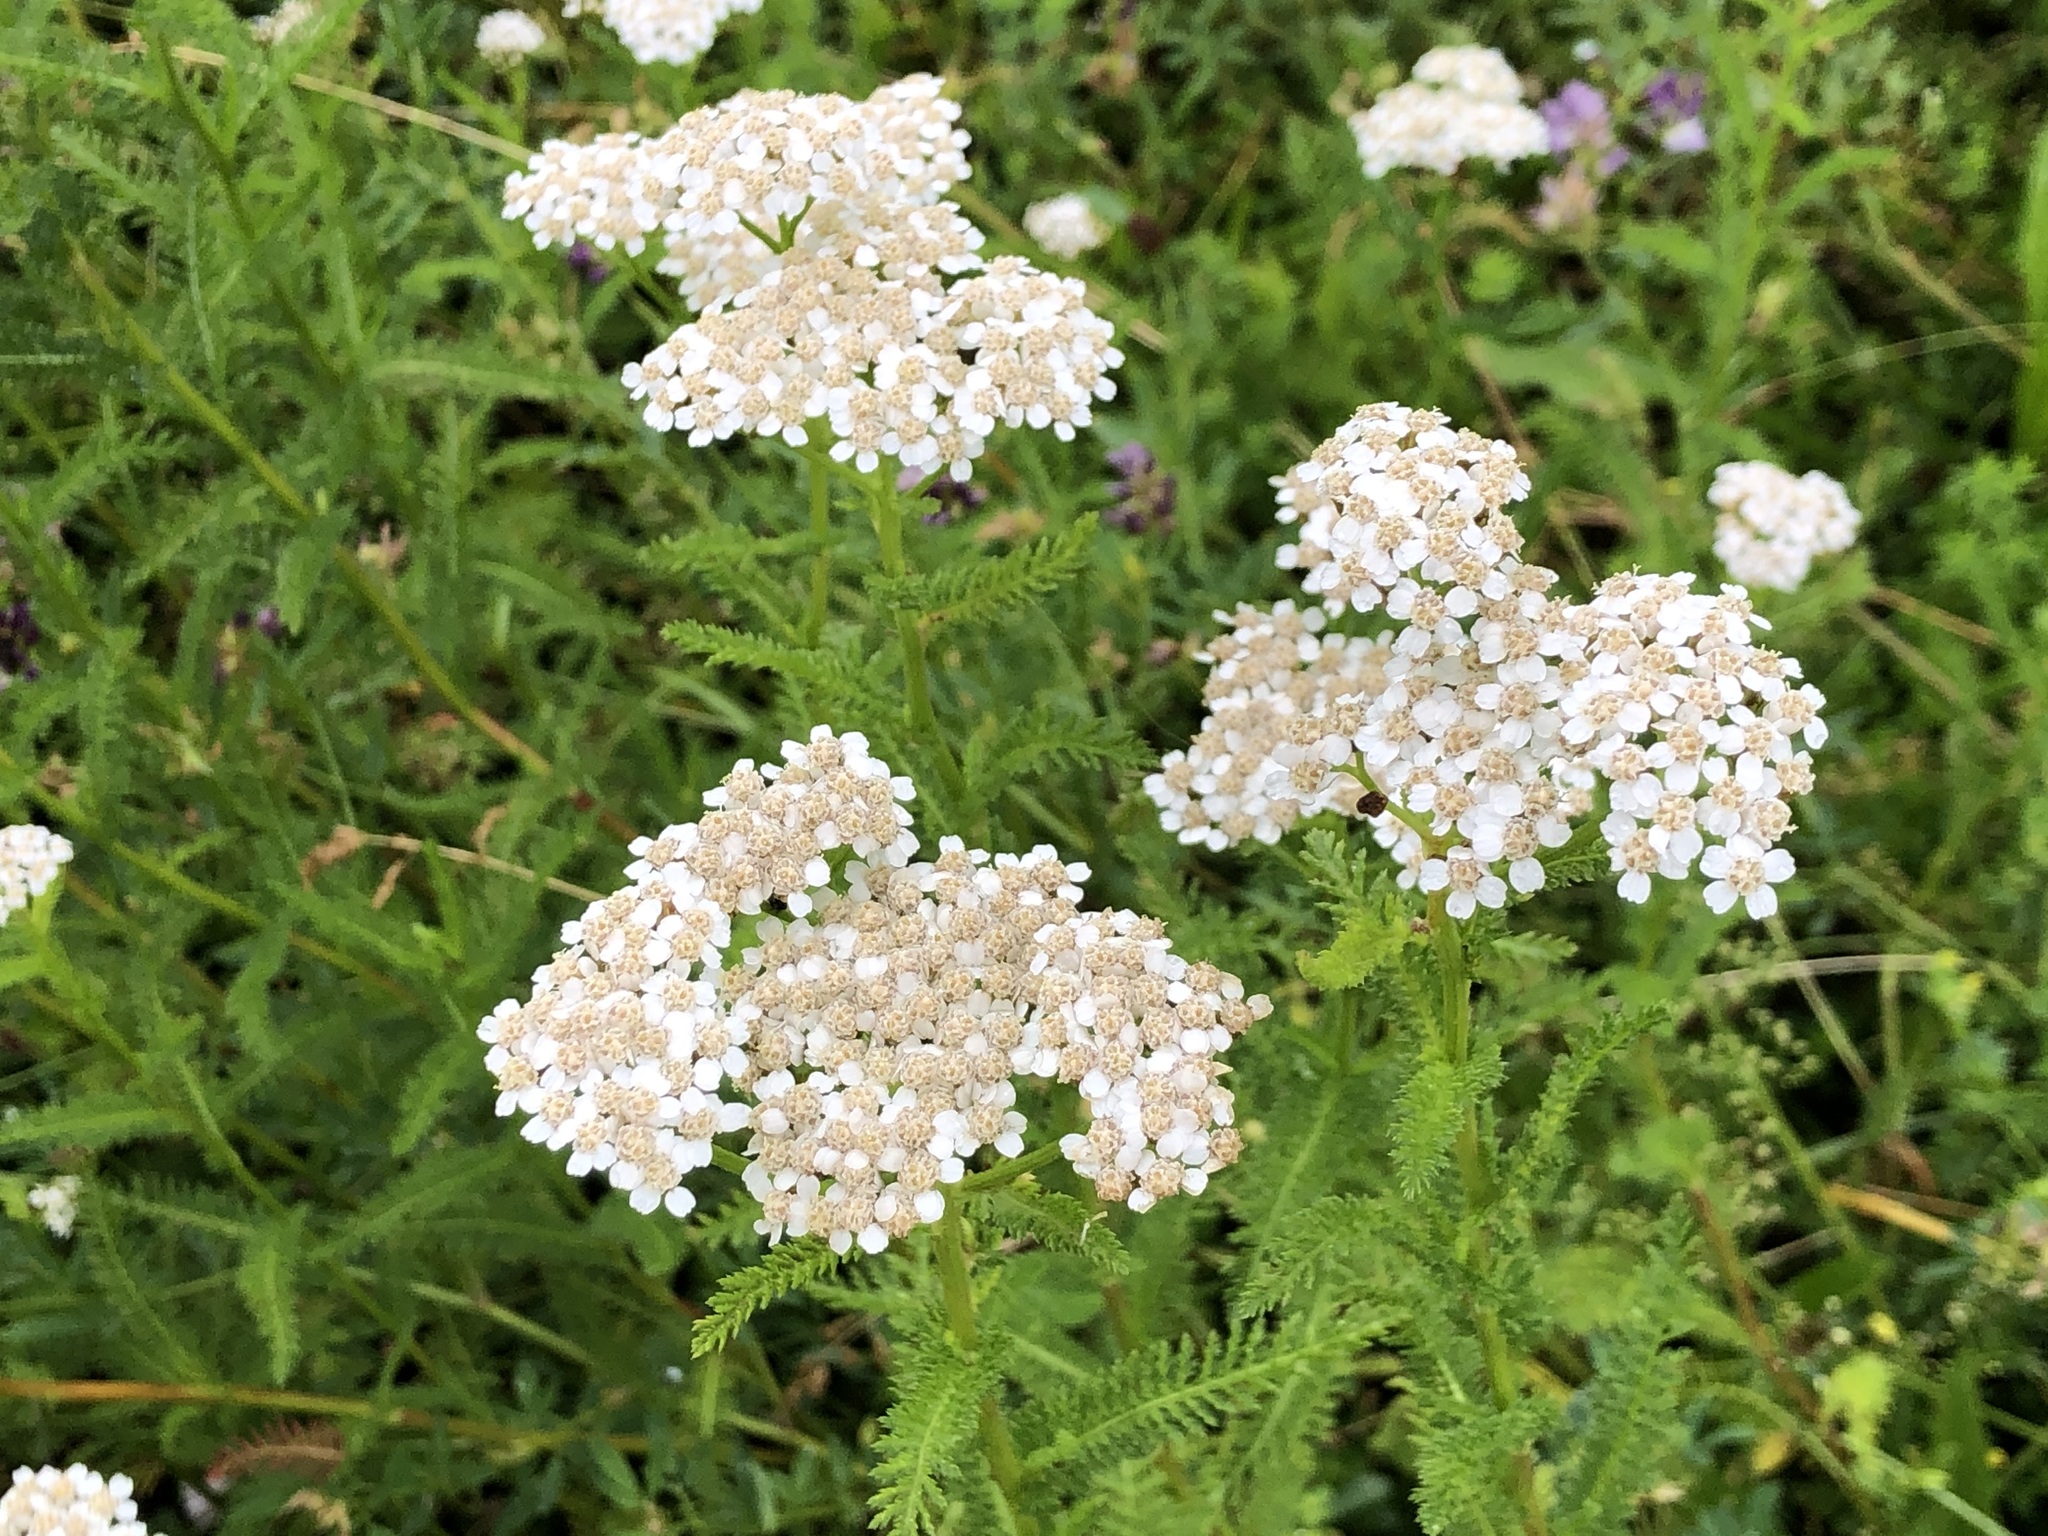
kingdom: Plantae
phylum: Tracheophyta
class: Magnoliopsida
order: Asterales
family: Asteraceae
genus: Achillea
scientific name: Achillea millefolium
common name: Yarrow
